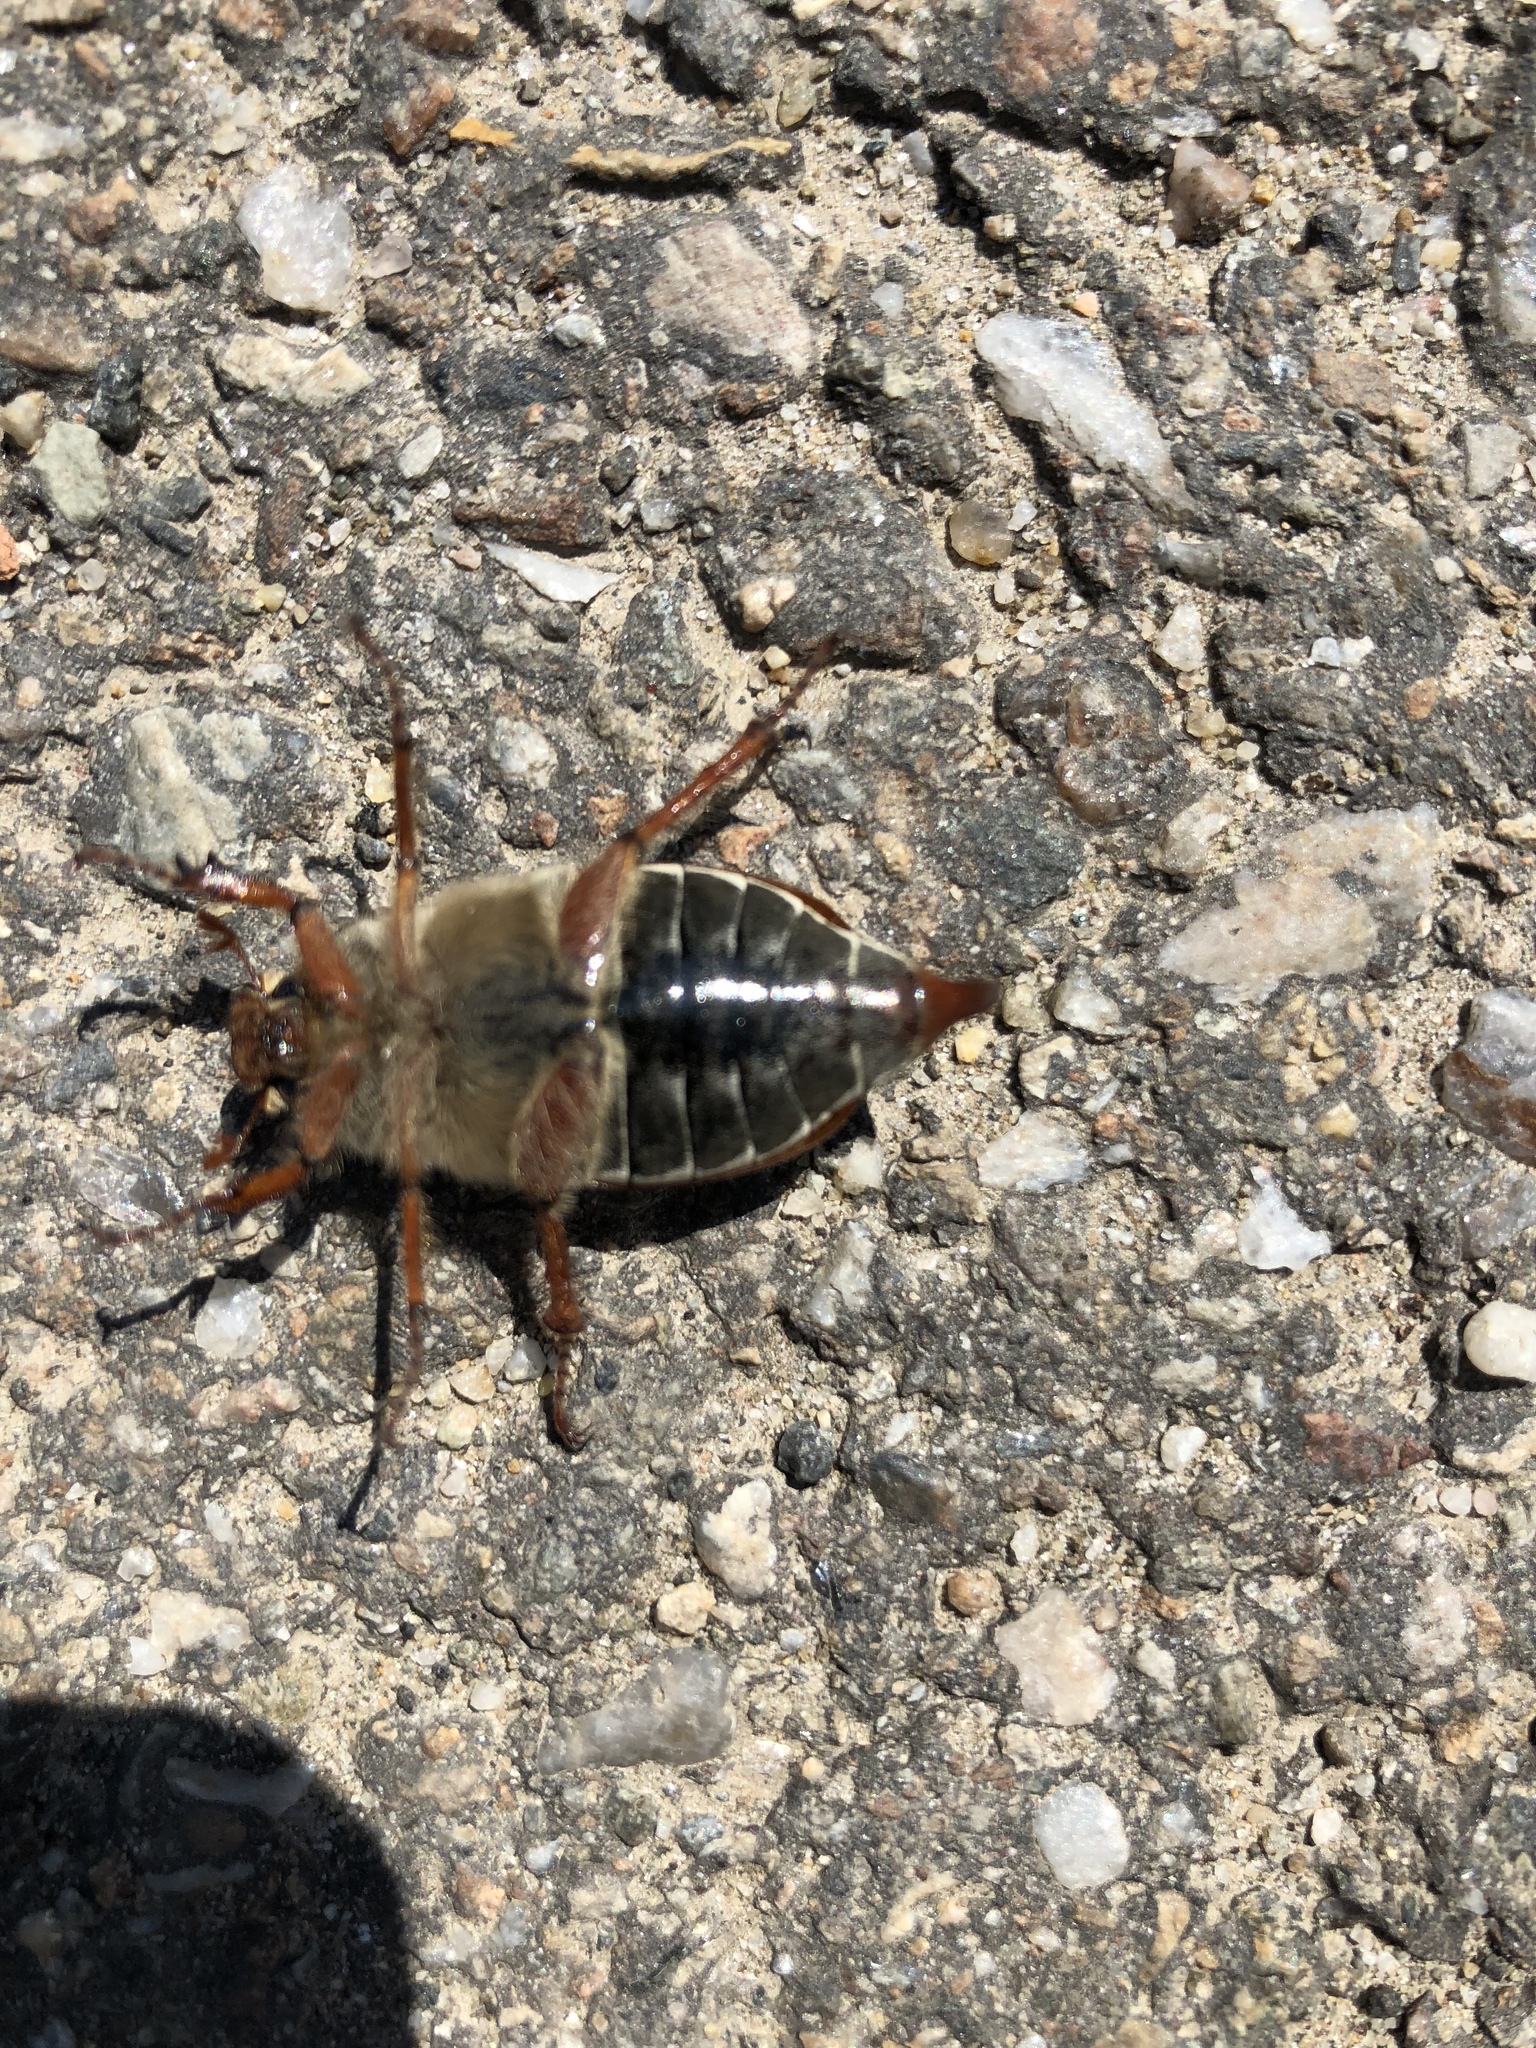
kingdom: Animalia
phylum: Arthropoda
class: Insecta
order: Coleoptera
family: Scarabaeidae
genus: Melolontha
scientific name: Melolontha melolontha
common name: Cockchafer maybeetle
